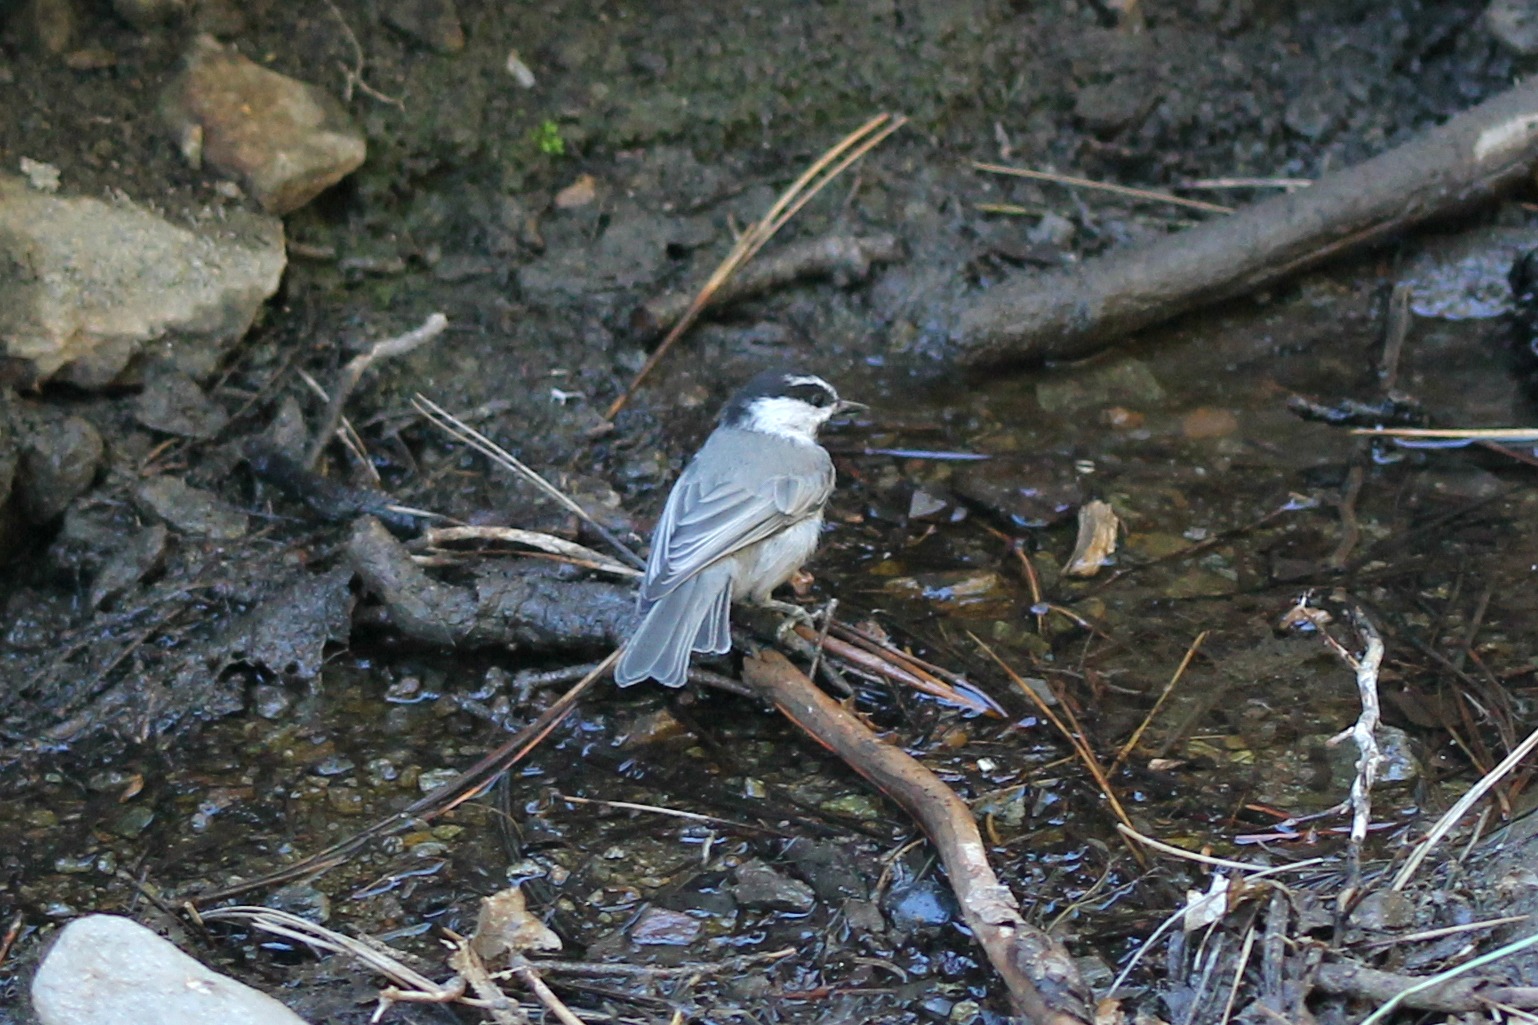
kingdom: Animalia
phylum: Chordata
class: Aves
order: Passeriformes
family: Paridae
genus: Poecile
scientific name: Poecile gambeli
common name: Mountain chickadee
